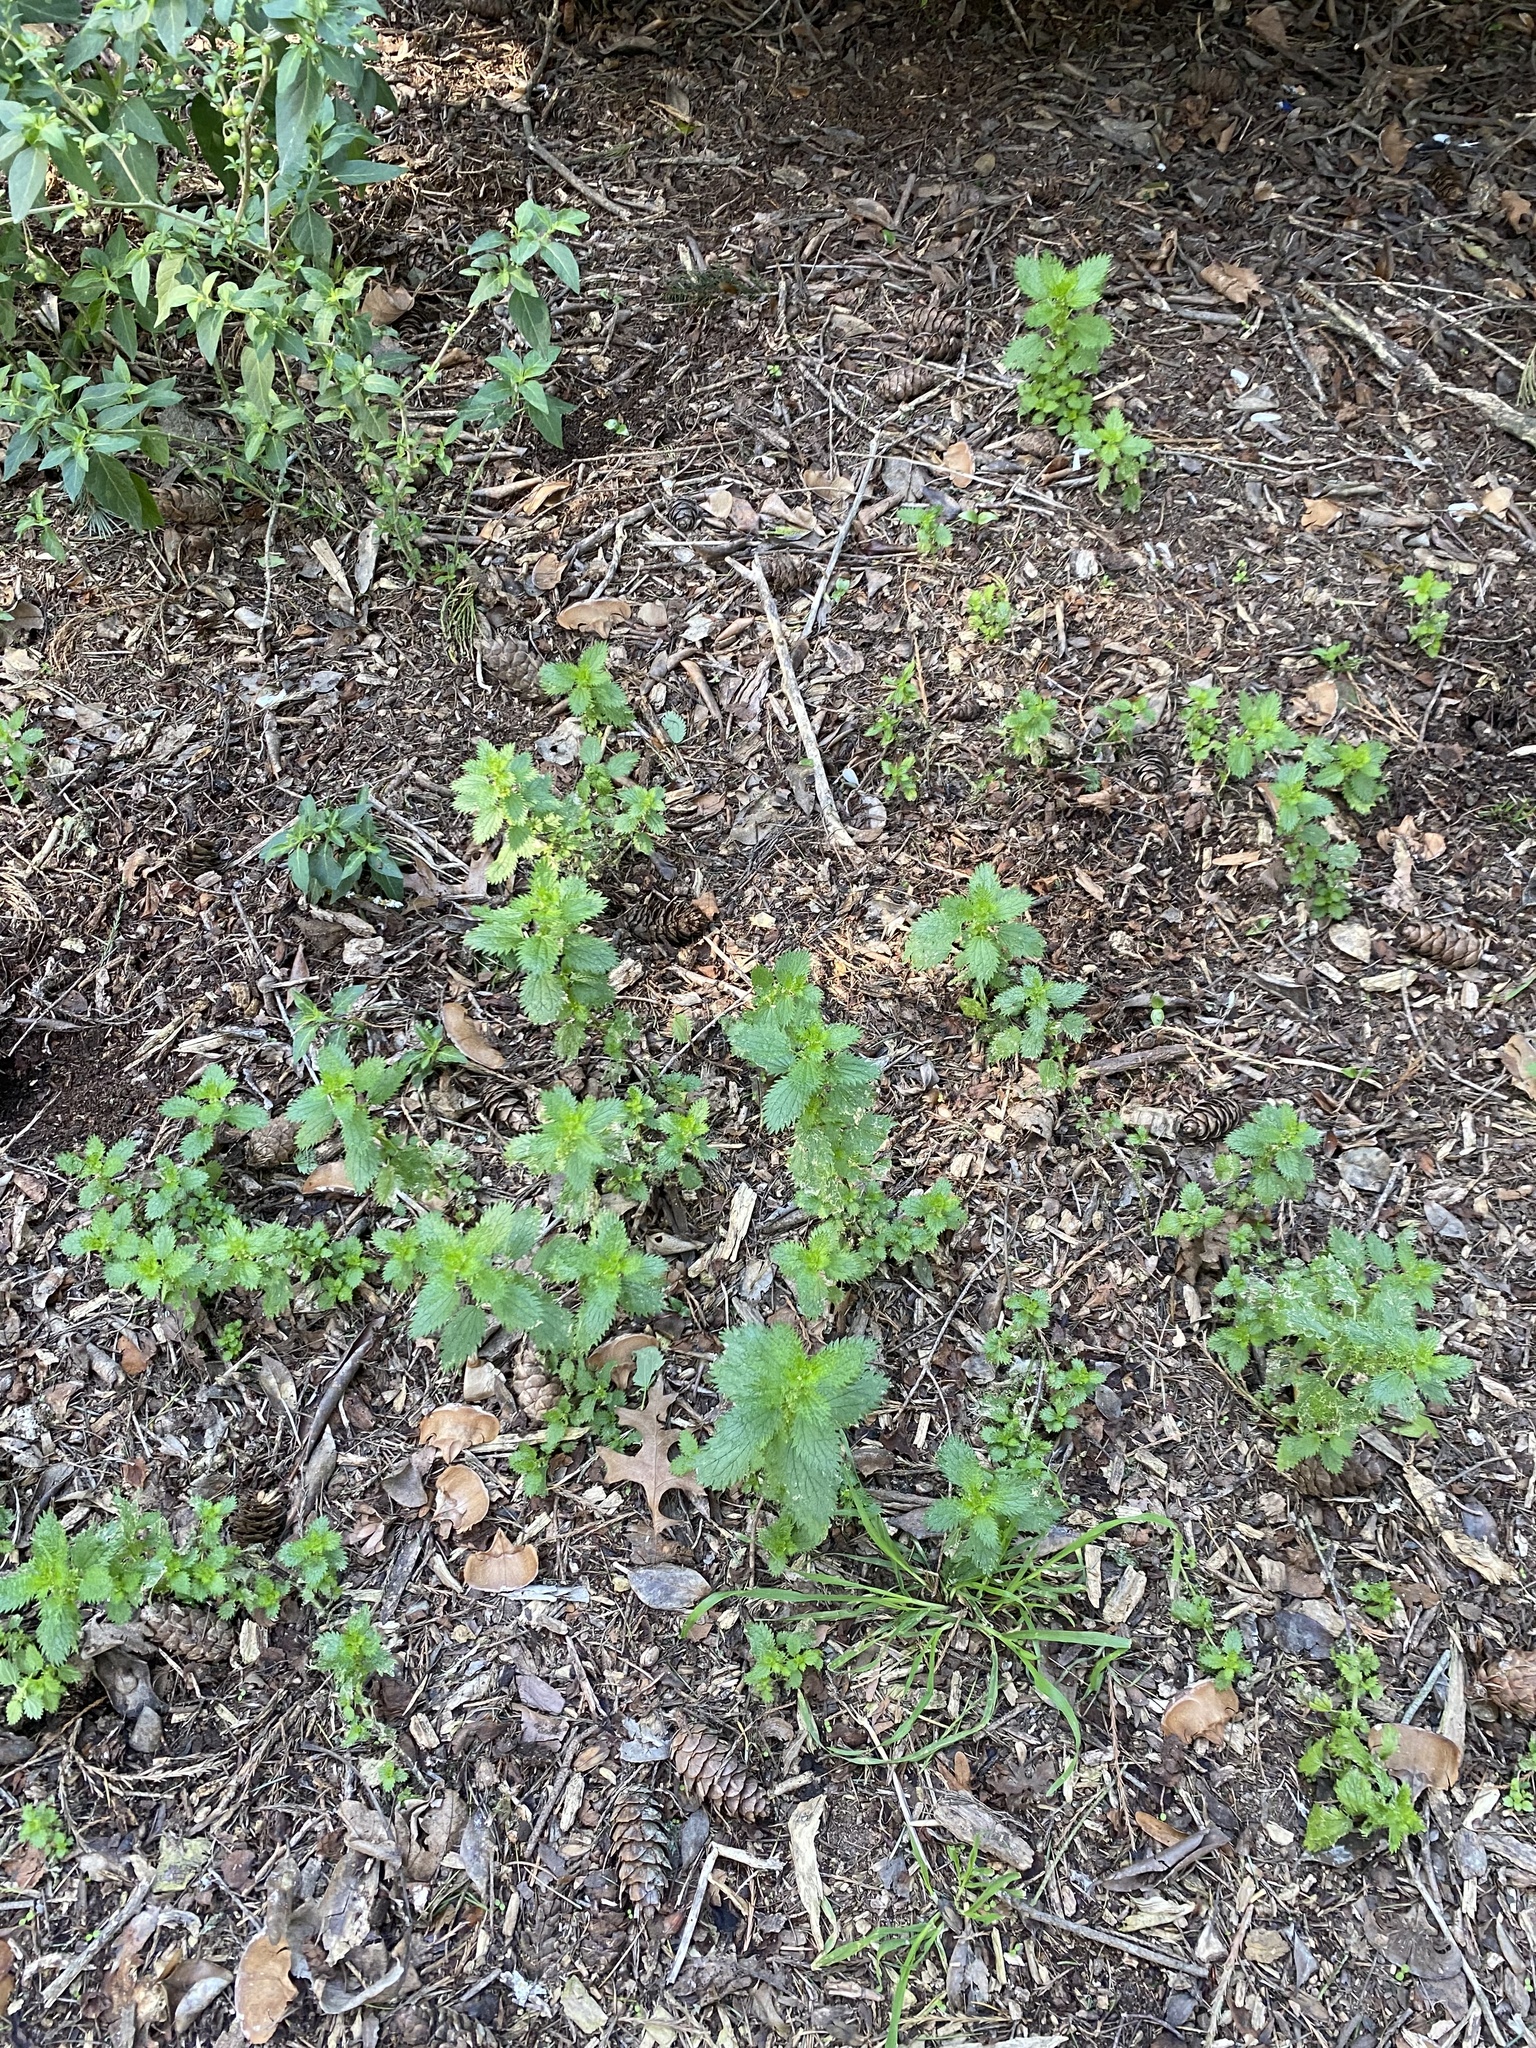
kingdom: Plantae
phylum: Tracheophyta
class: Magnoliopsida
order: Rosales
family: Urticaceae
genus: Urtica
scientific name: Urtica urens
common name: Dwarf nettle
